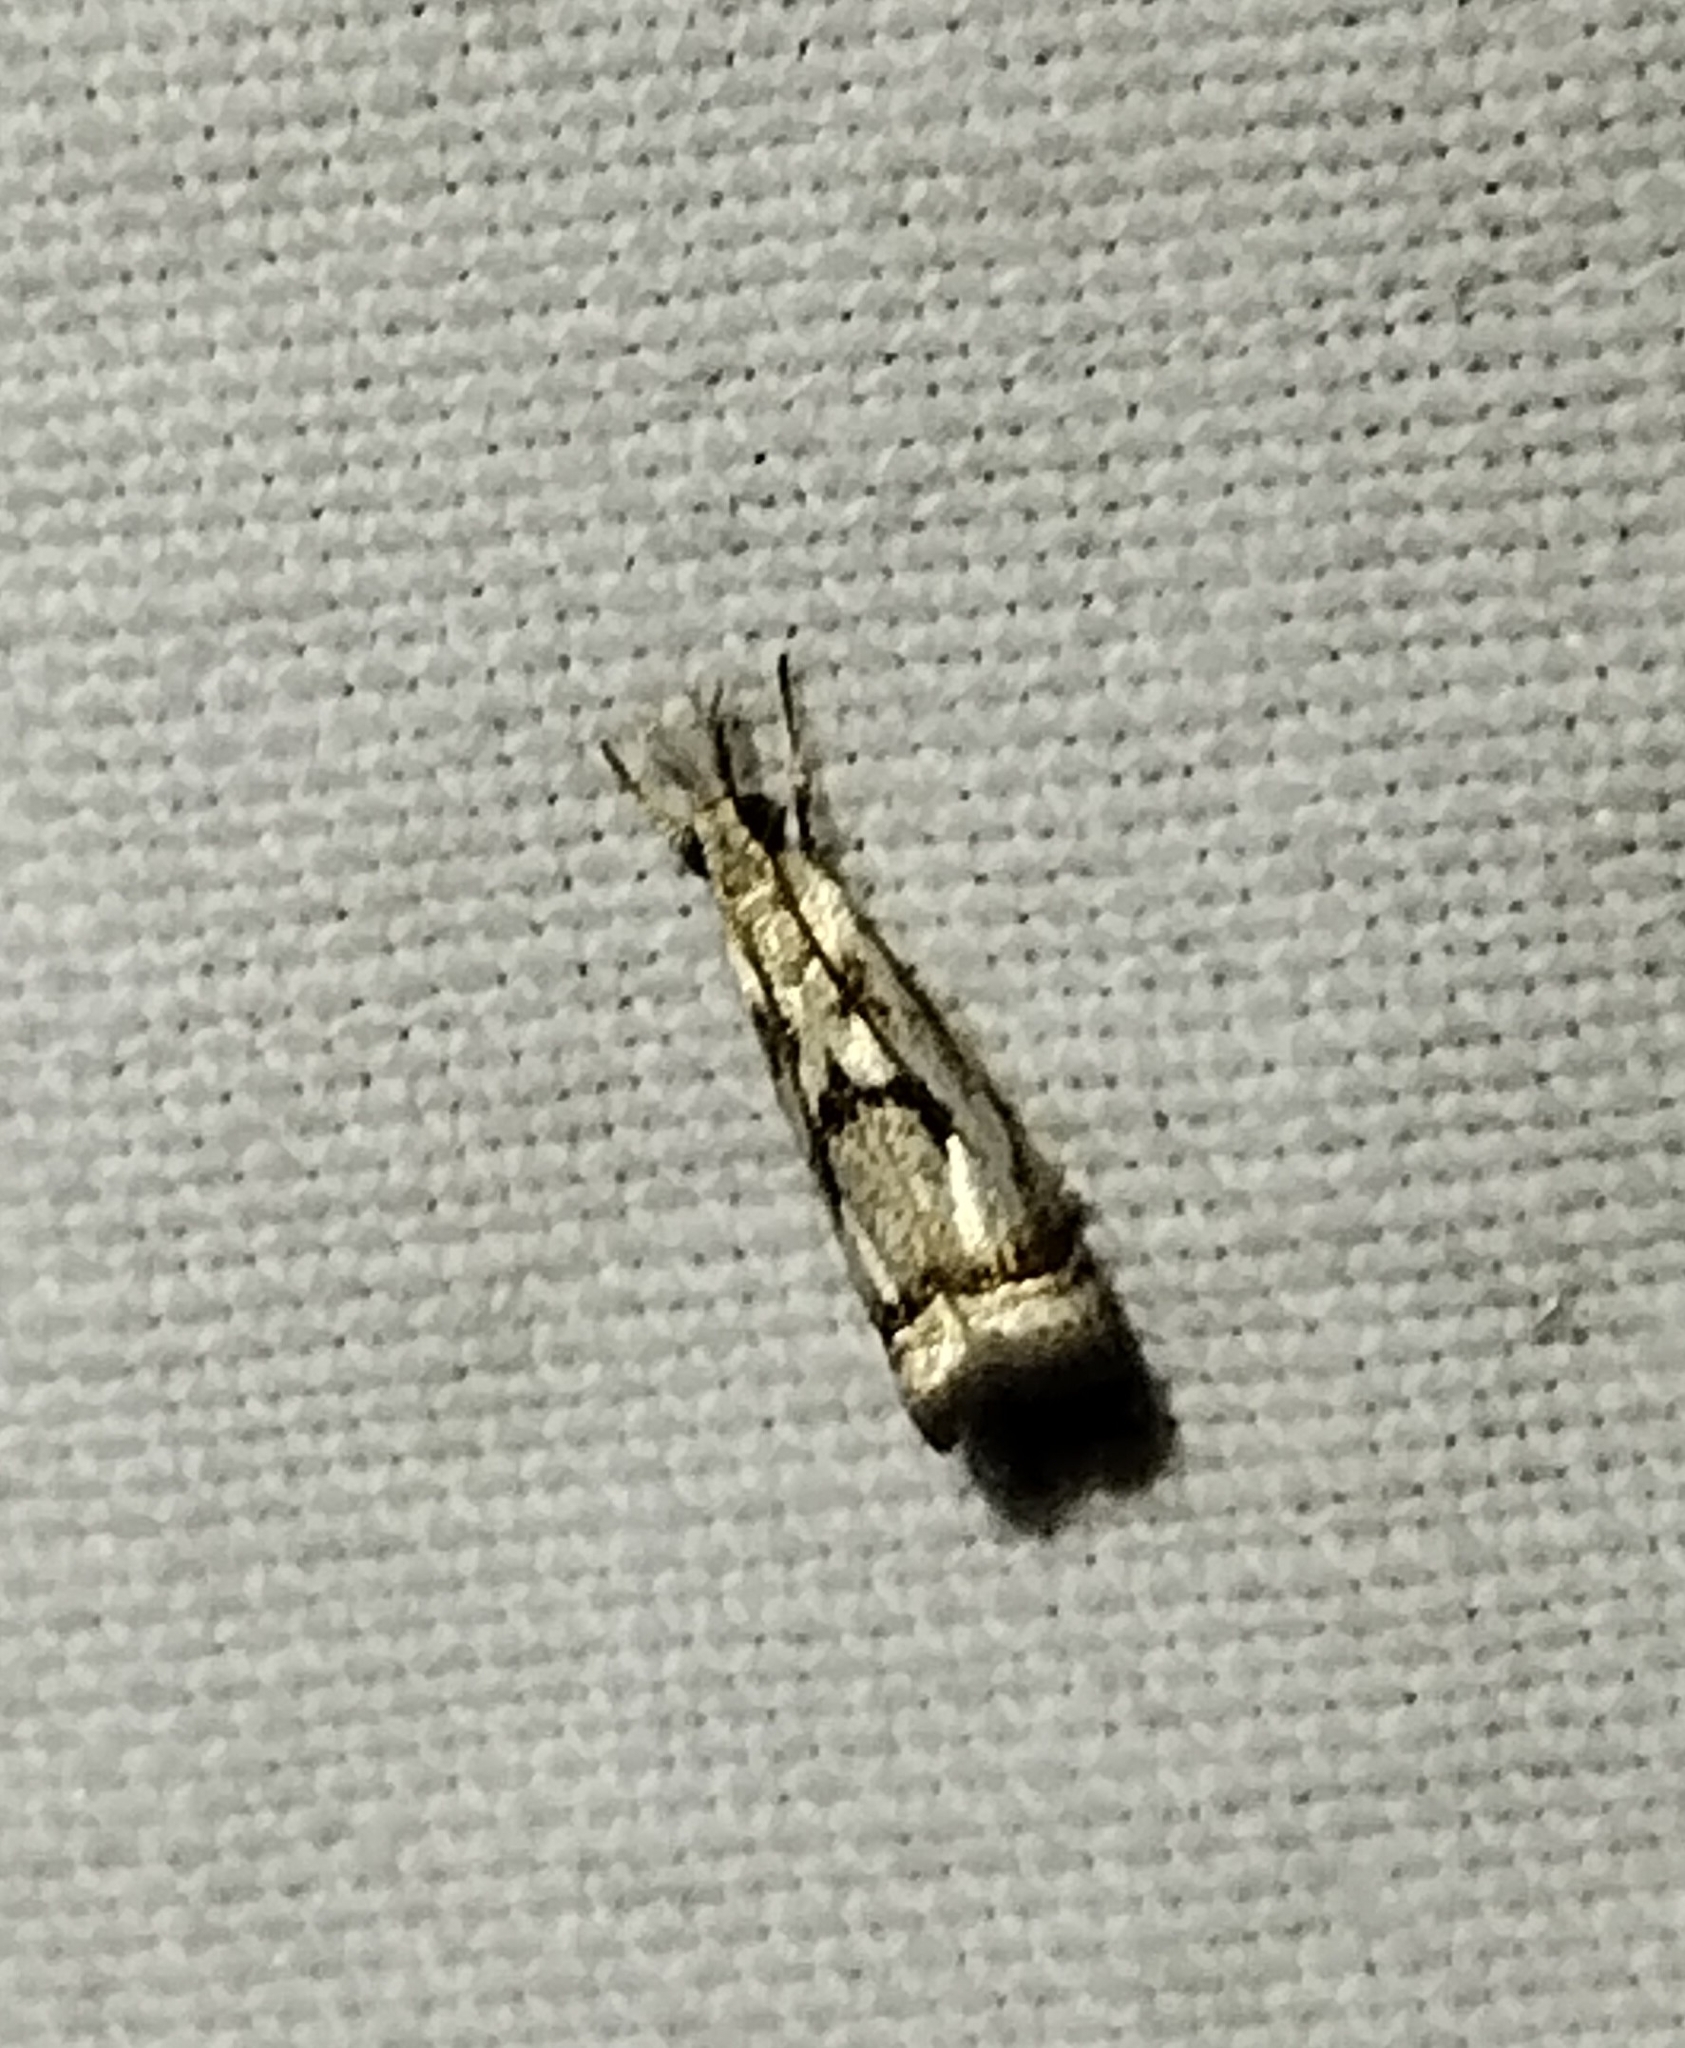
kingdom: Animalia
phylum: Arthropoda
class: Insecta
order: Lepidoptera
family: Crambidae
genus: Microcrambus
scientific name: Microcrambus elegans
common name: Elegant grass-veneer
